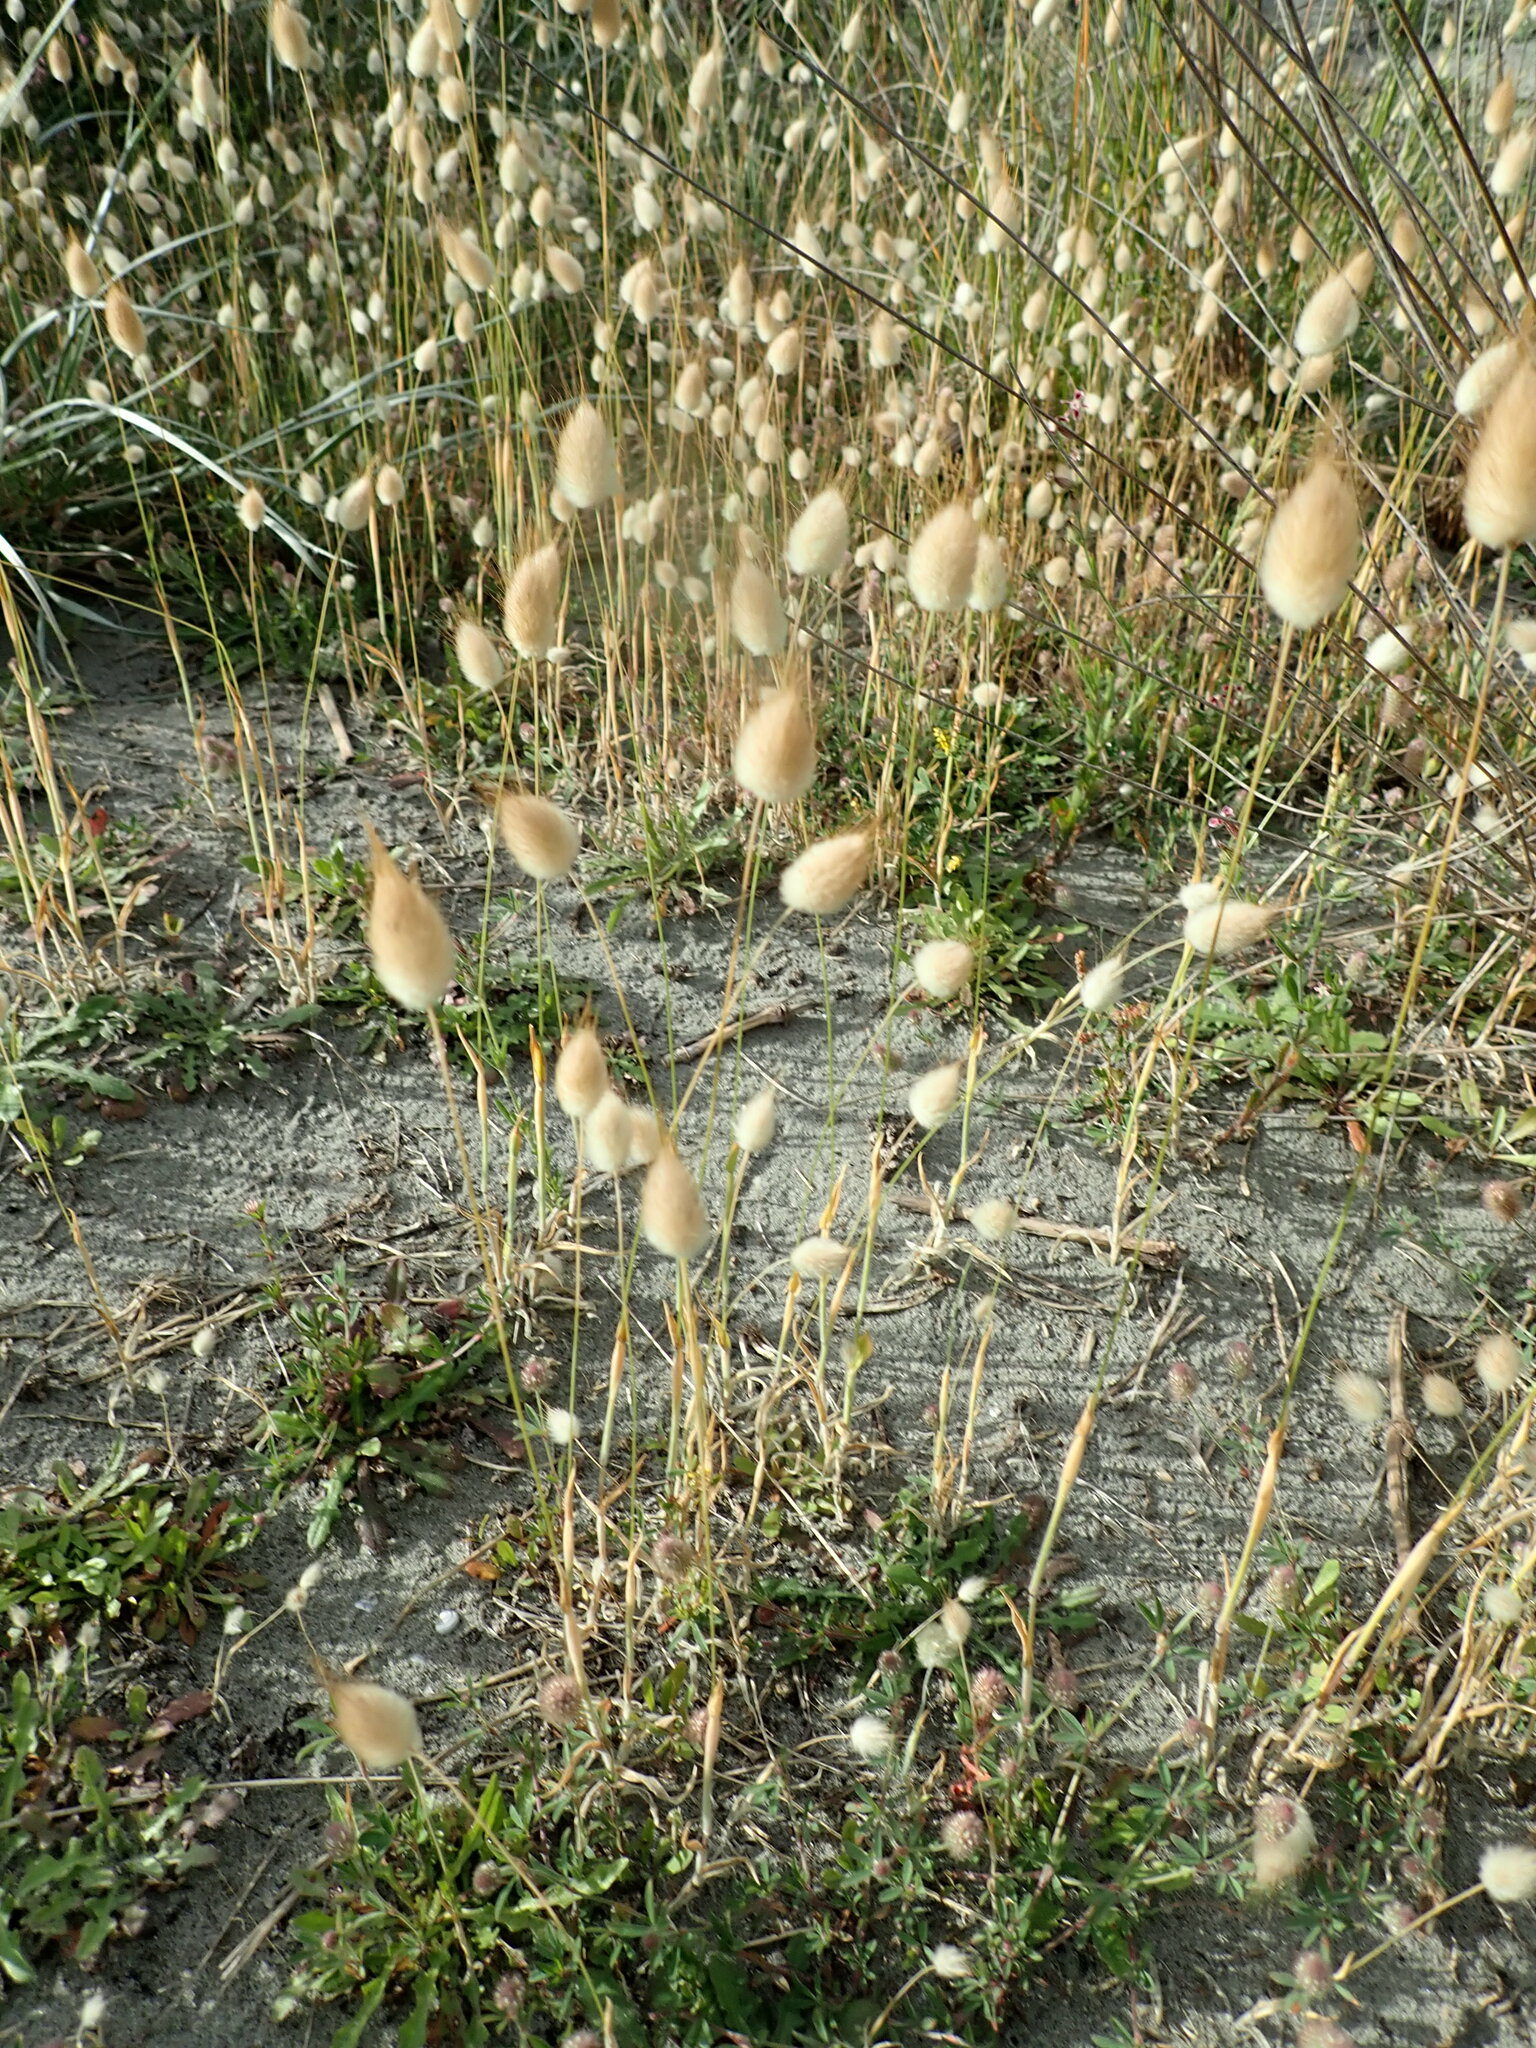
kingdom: Plantae
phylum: Tracheophyta
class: Liliopsida
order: Poales
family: Poaceae
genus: Lagurus
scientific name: Lagurus ovatus
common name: Hare's-tail
